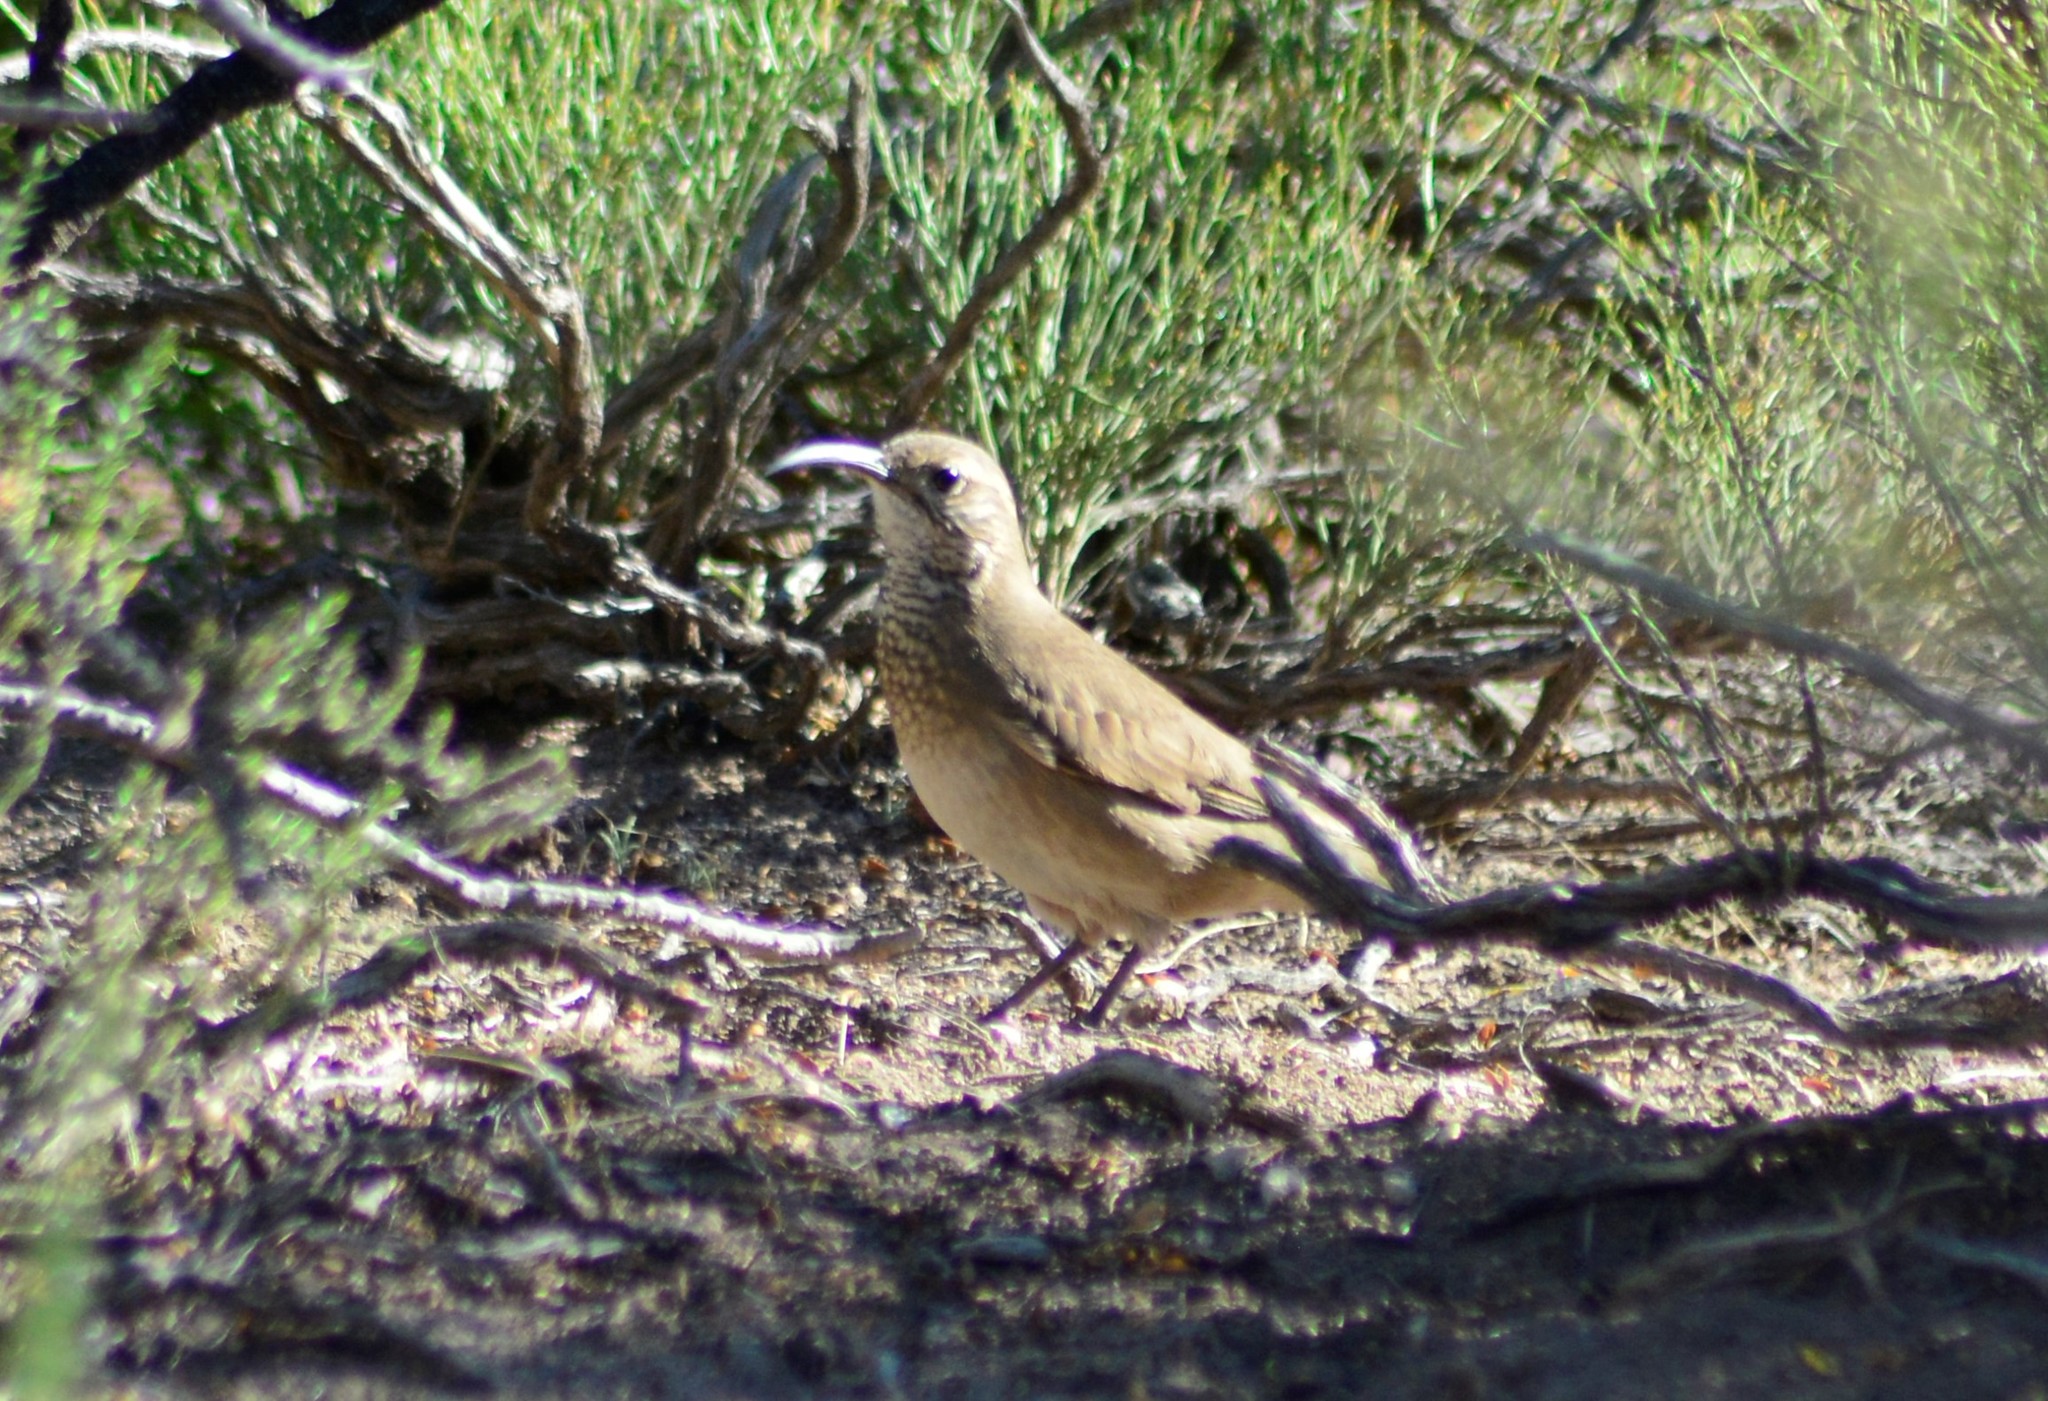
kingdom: Animalia
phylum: Chordata
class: Aves
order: Passeriformes
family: Furnariidae
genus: Upucerthia
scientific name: Upucerthia dumetaria
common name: Scale-throated earthcreeper
